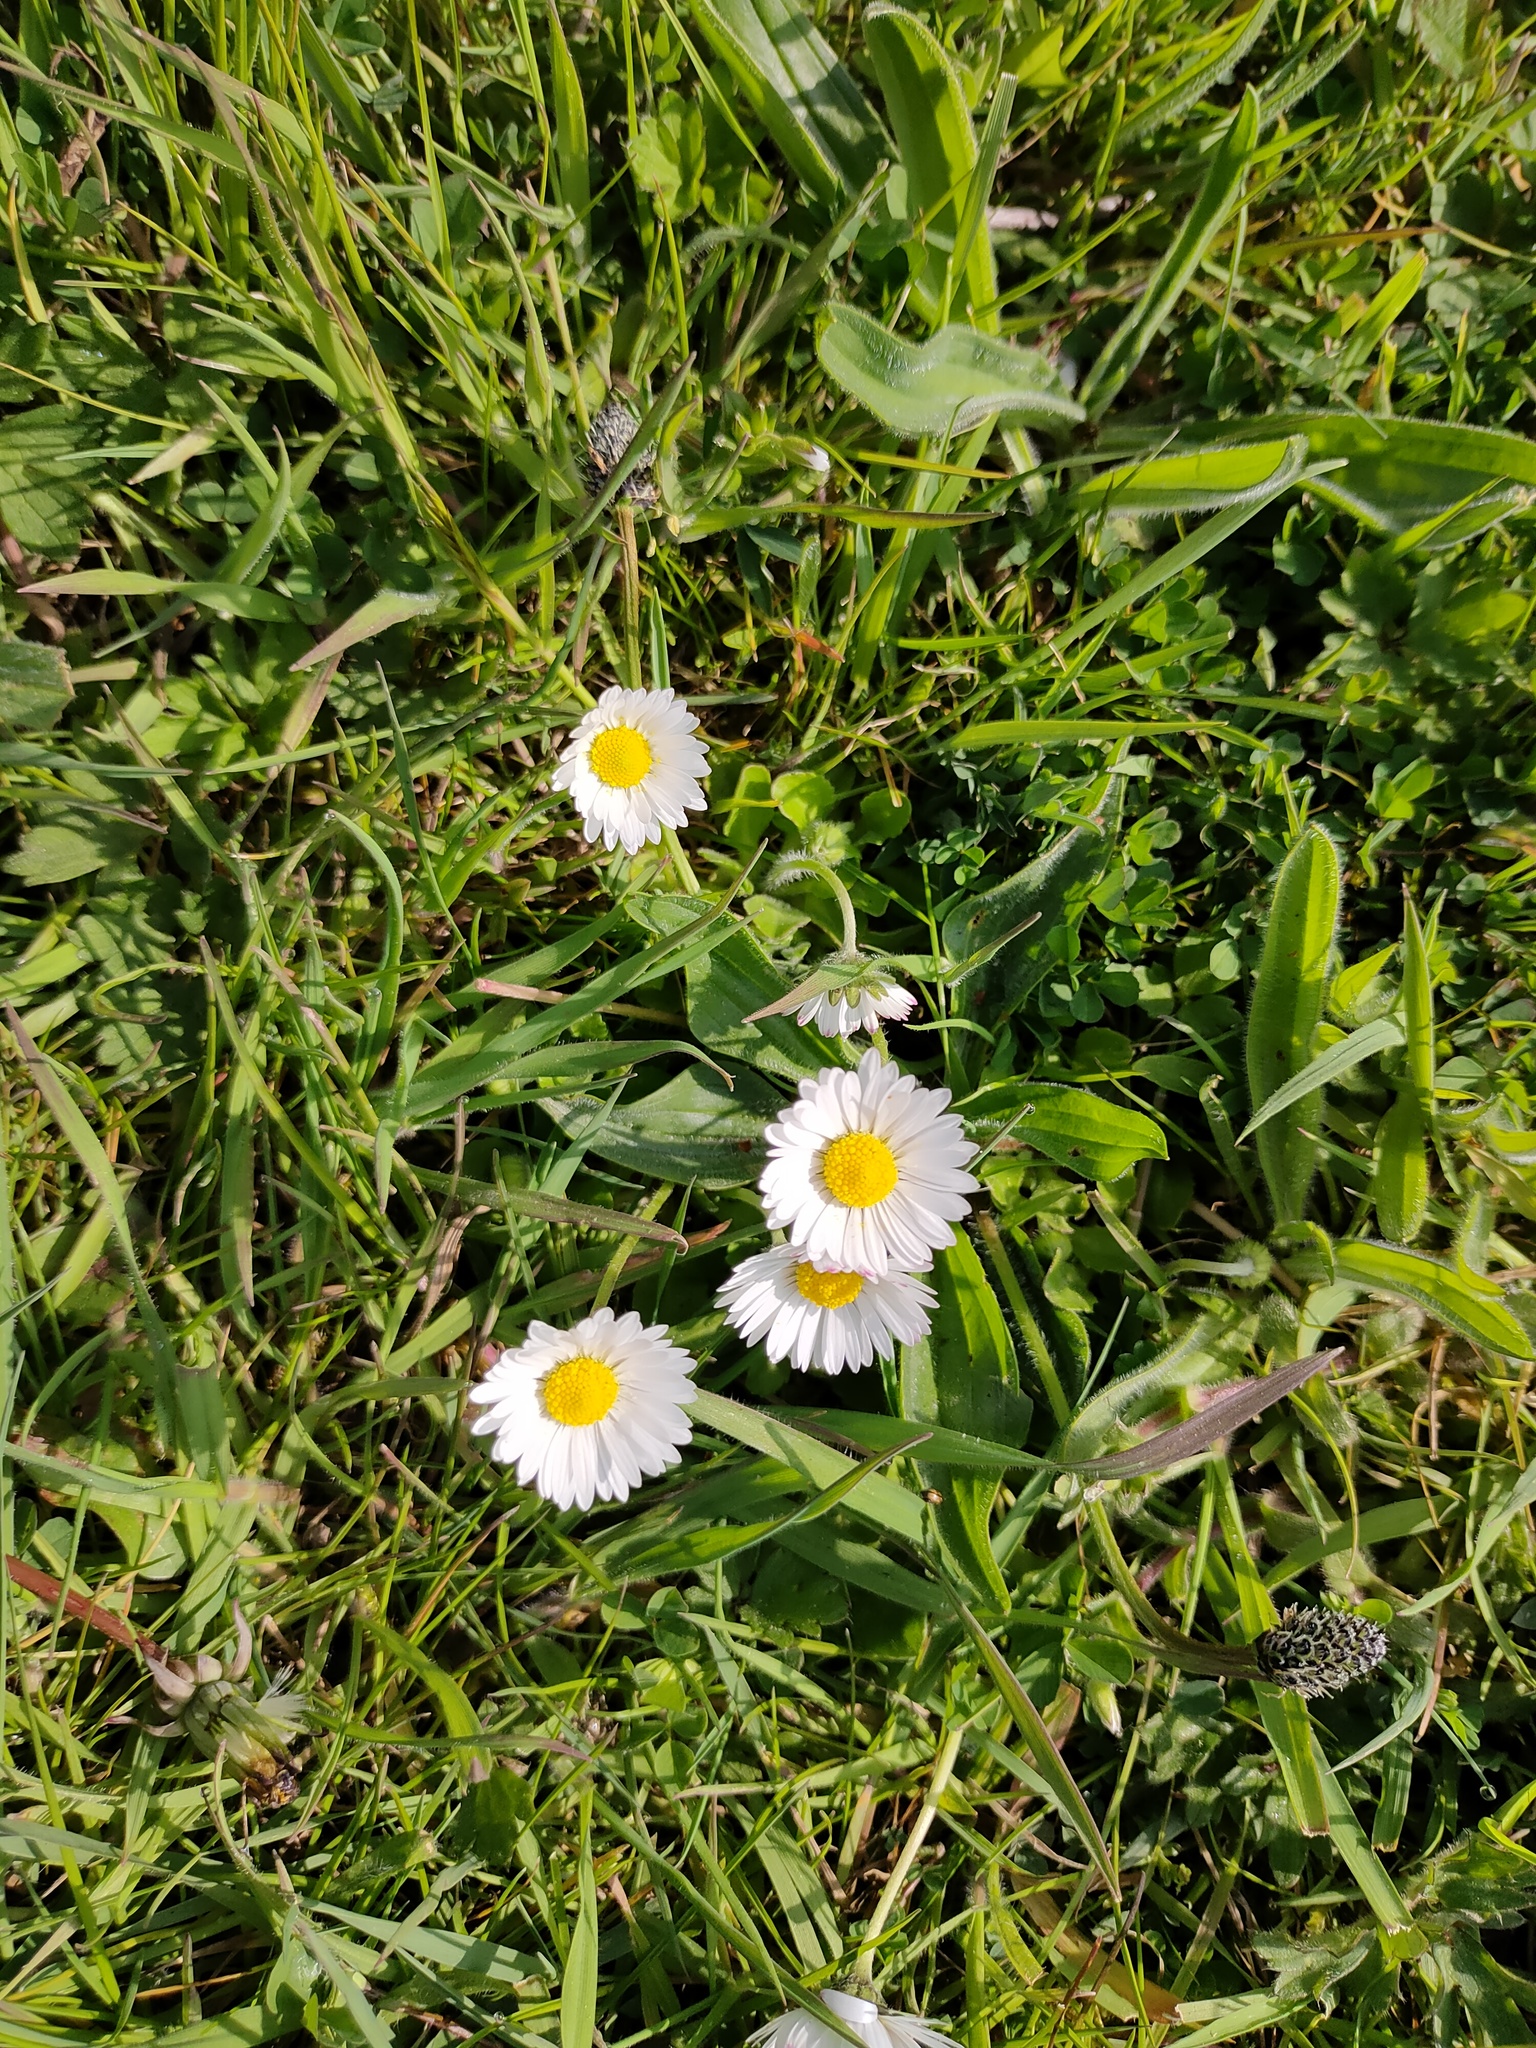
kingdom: Plantae
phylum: Tracheophyta
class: Magnoliopsida
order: Asterales
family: Asteraceae
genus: Bellis
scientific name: Bellis perennis
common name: Lawndaisy
